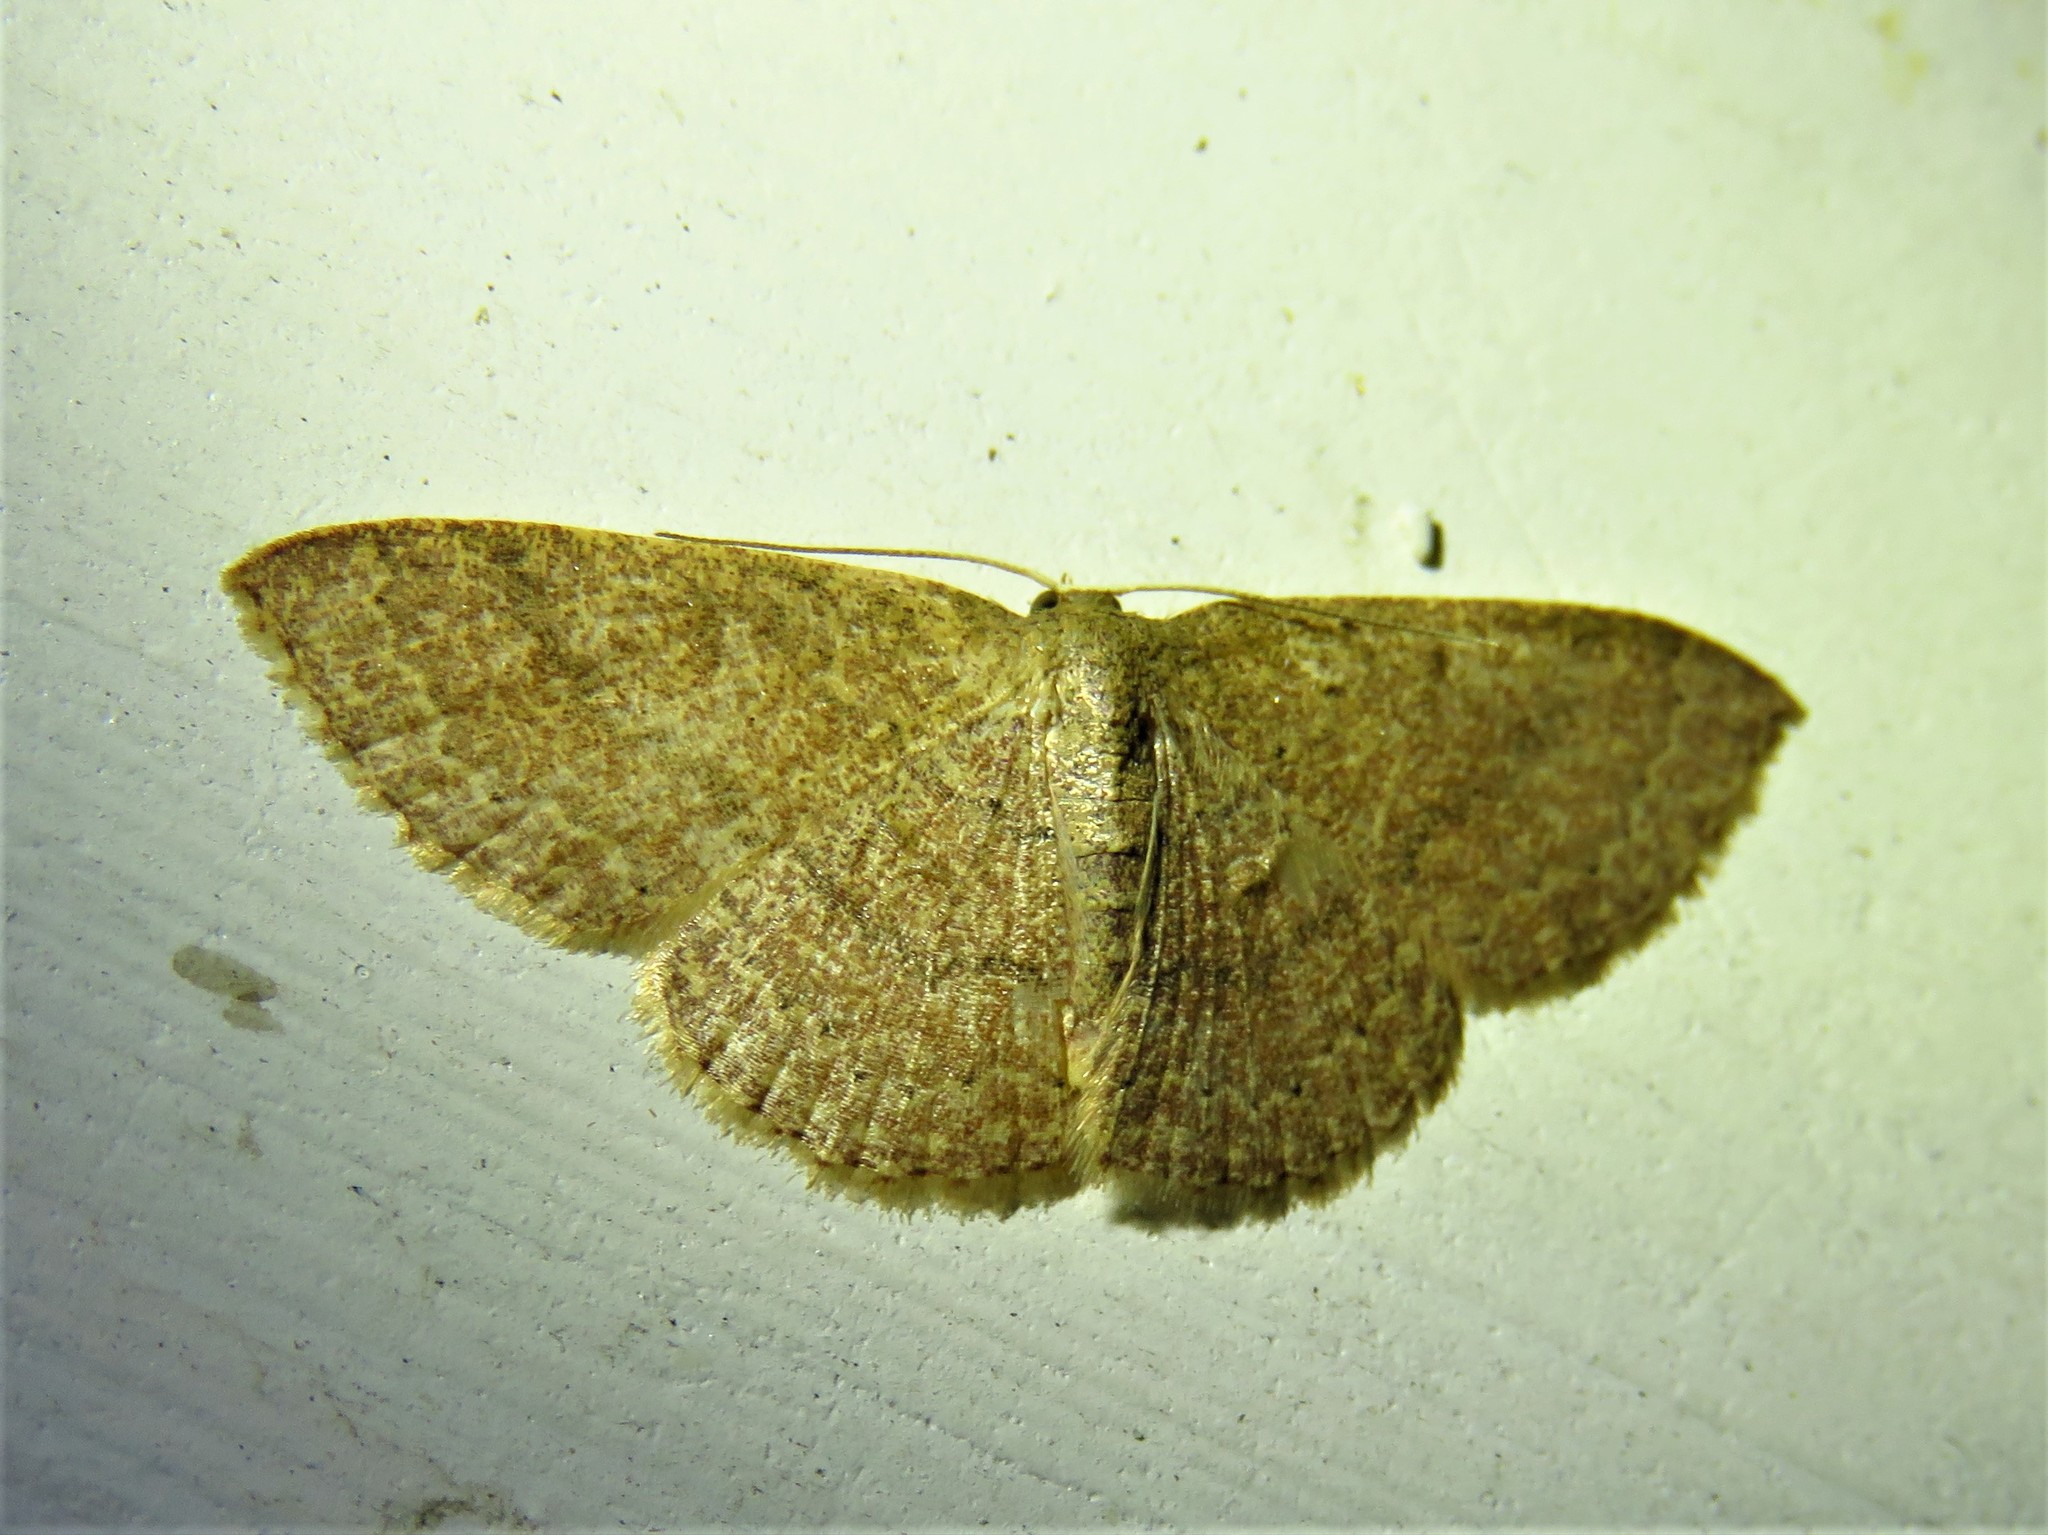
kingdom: Animalia
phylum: Arthropoda
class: Insecta
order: Lepidoptera
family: Geometridae
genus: Pleuroprucha
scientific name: Pleuroprucha insulsaria
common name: Common tan wave
